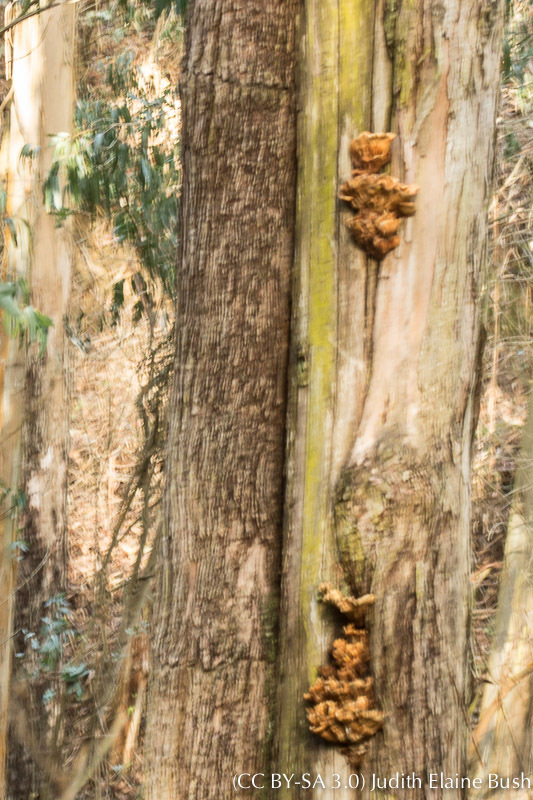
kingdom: Fungi
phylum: Basidiomycota
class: Agaricomycetes
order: Polyporales
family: Laetiporaceae
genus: Laetiporus
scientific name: Laetiporus gilbertsonii
